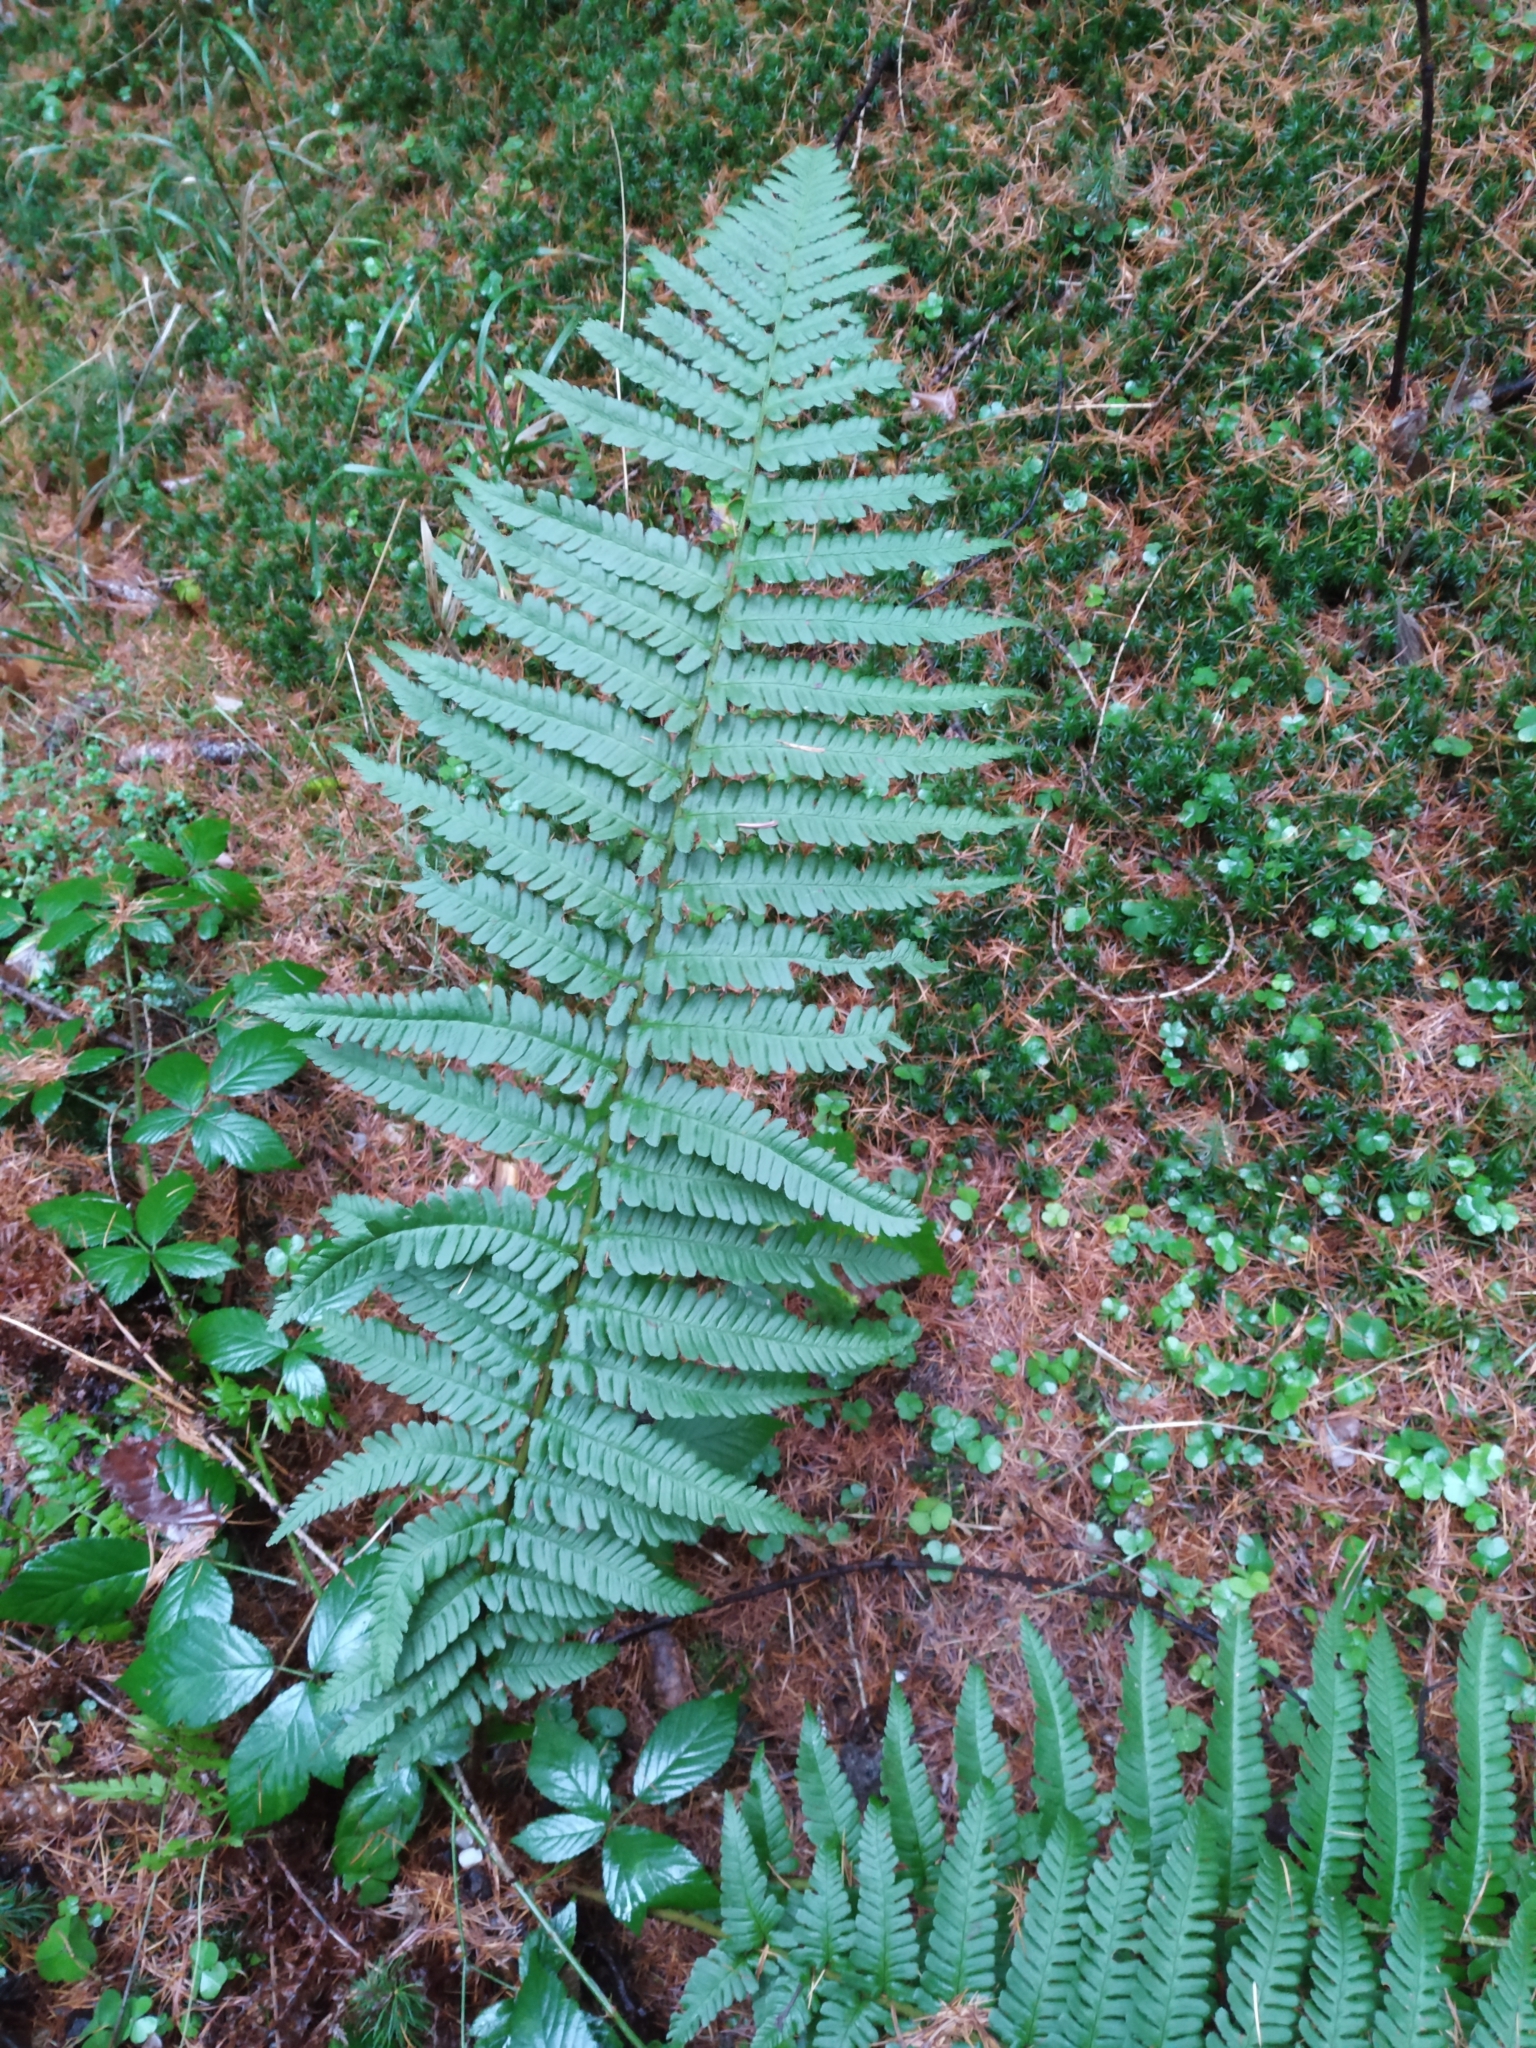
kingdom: Plantae
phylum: Tracheophyta
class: Polypodiopsida
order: Polypodiales
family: Dryopteridaceae
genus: Dryopteris
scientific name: Dryopteris filix-mas
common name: Male fern
